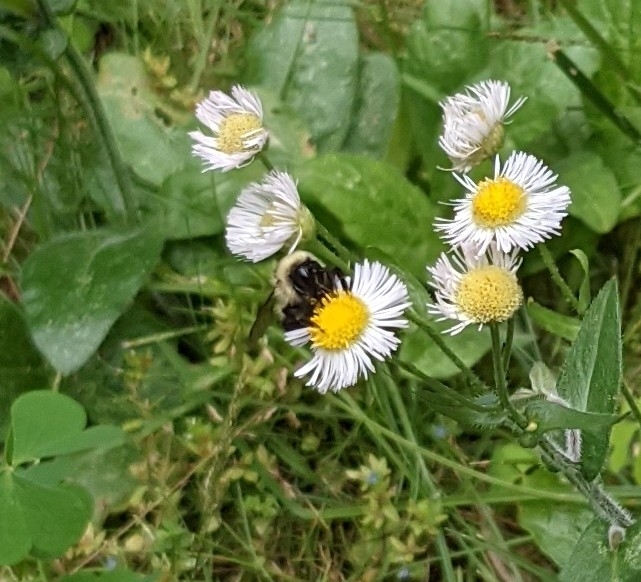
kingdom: Animalia
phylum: Arthropoda
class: Insecta
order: Hymenoptera
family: Apidae
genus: Bombus
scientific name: Bombus rufocinctus
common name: Red-belted bumble bee
